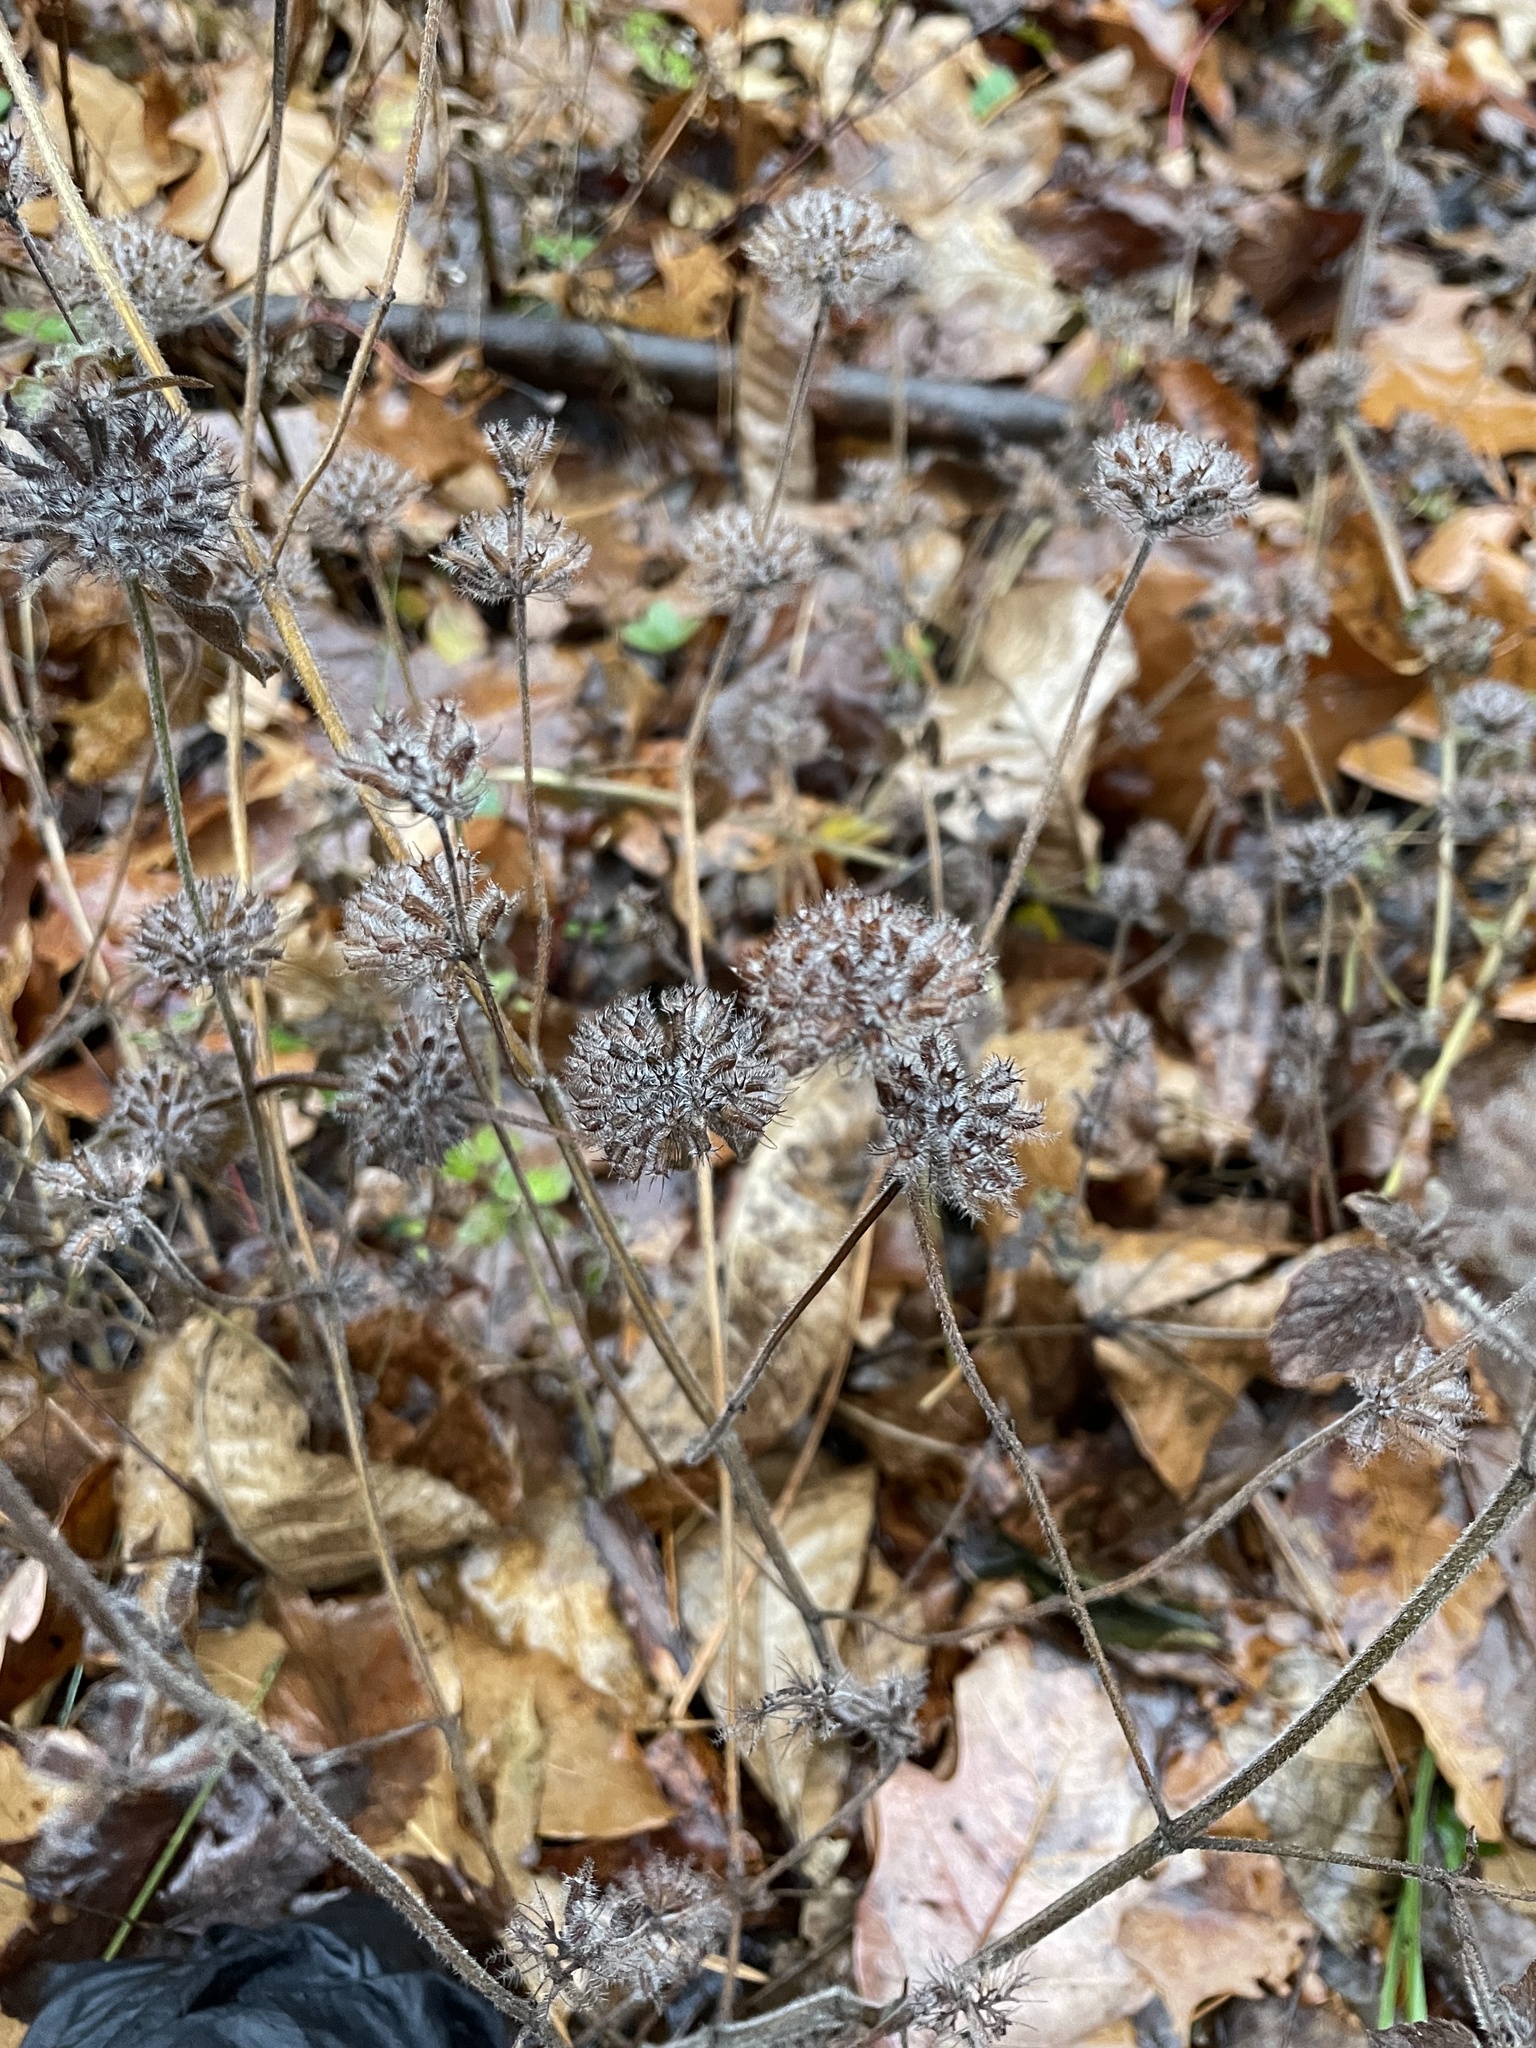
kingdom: Plantae
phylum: Tracheophyta
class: Magnoliopsida
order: Lamiales
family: Lamiaceae
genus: Clinopodium
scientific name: Clinopodium vulgare
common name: Wild basil
